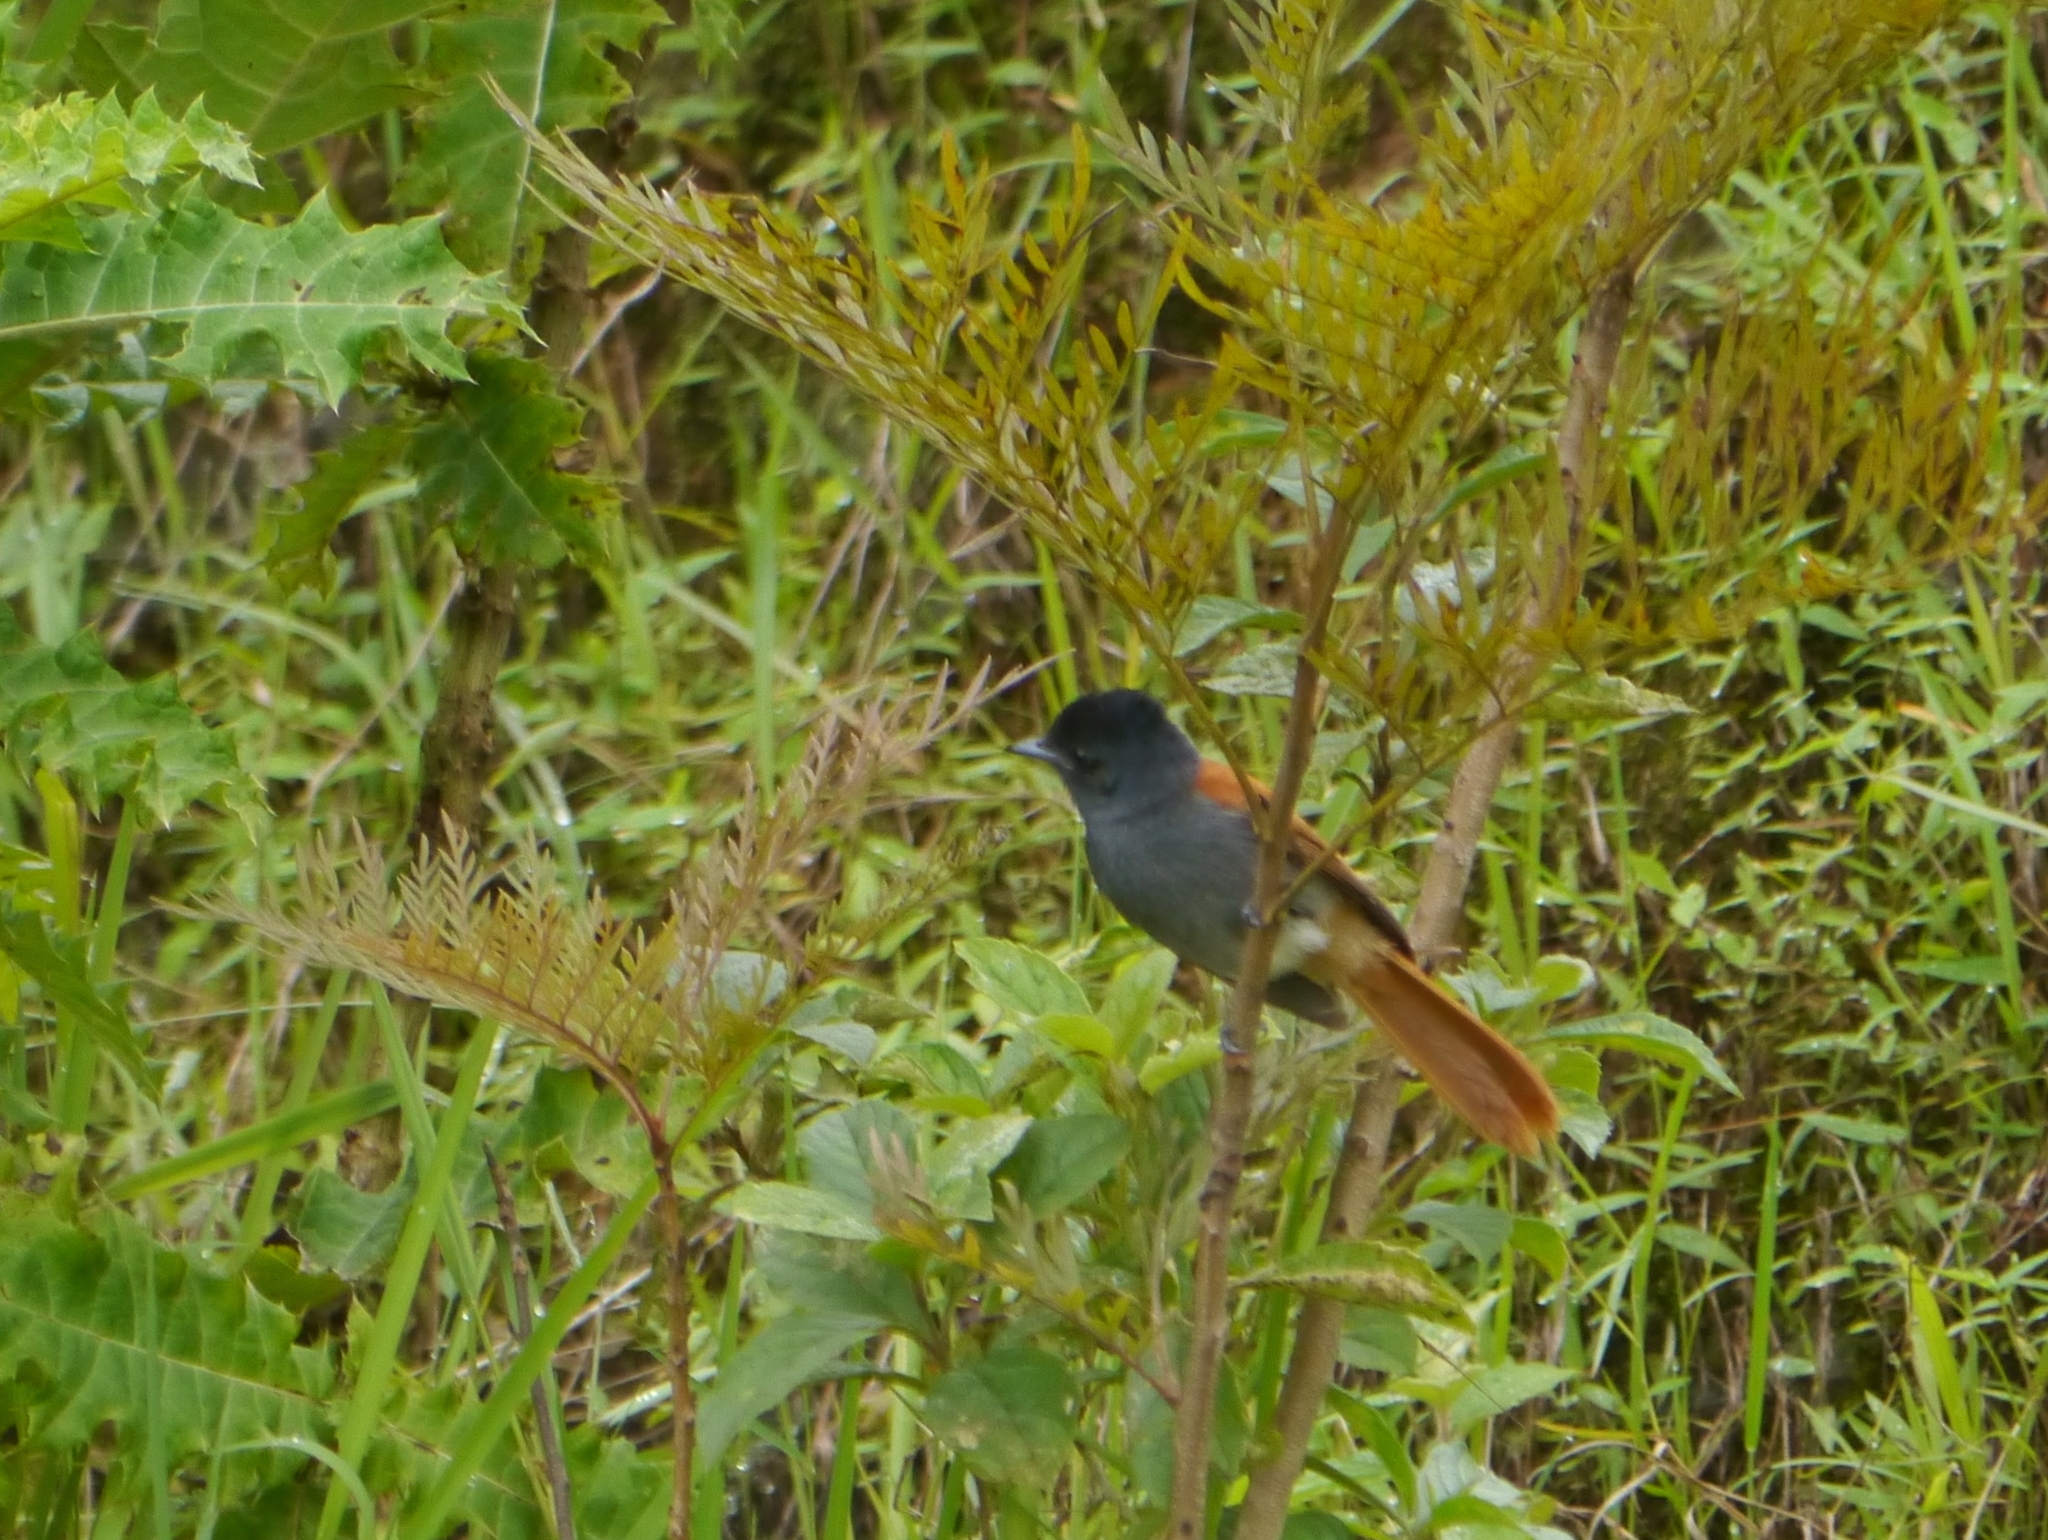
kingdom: Animalia
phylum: Chordata
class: Aves
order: Passeriformes
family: Monarchidae
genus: Terpsiphone
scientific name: Terpsiphone viridis
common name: African paradise flycatcher
